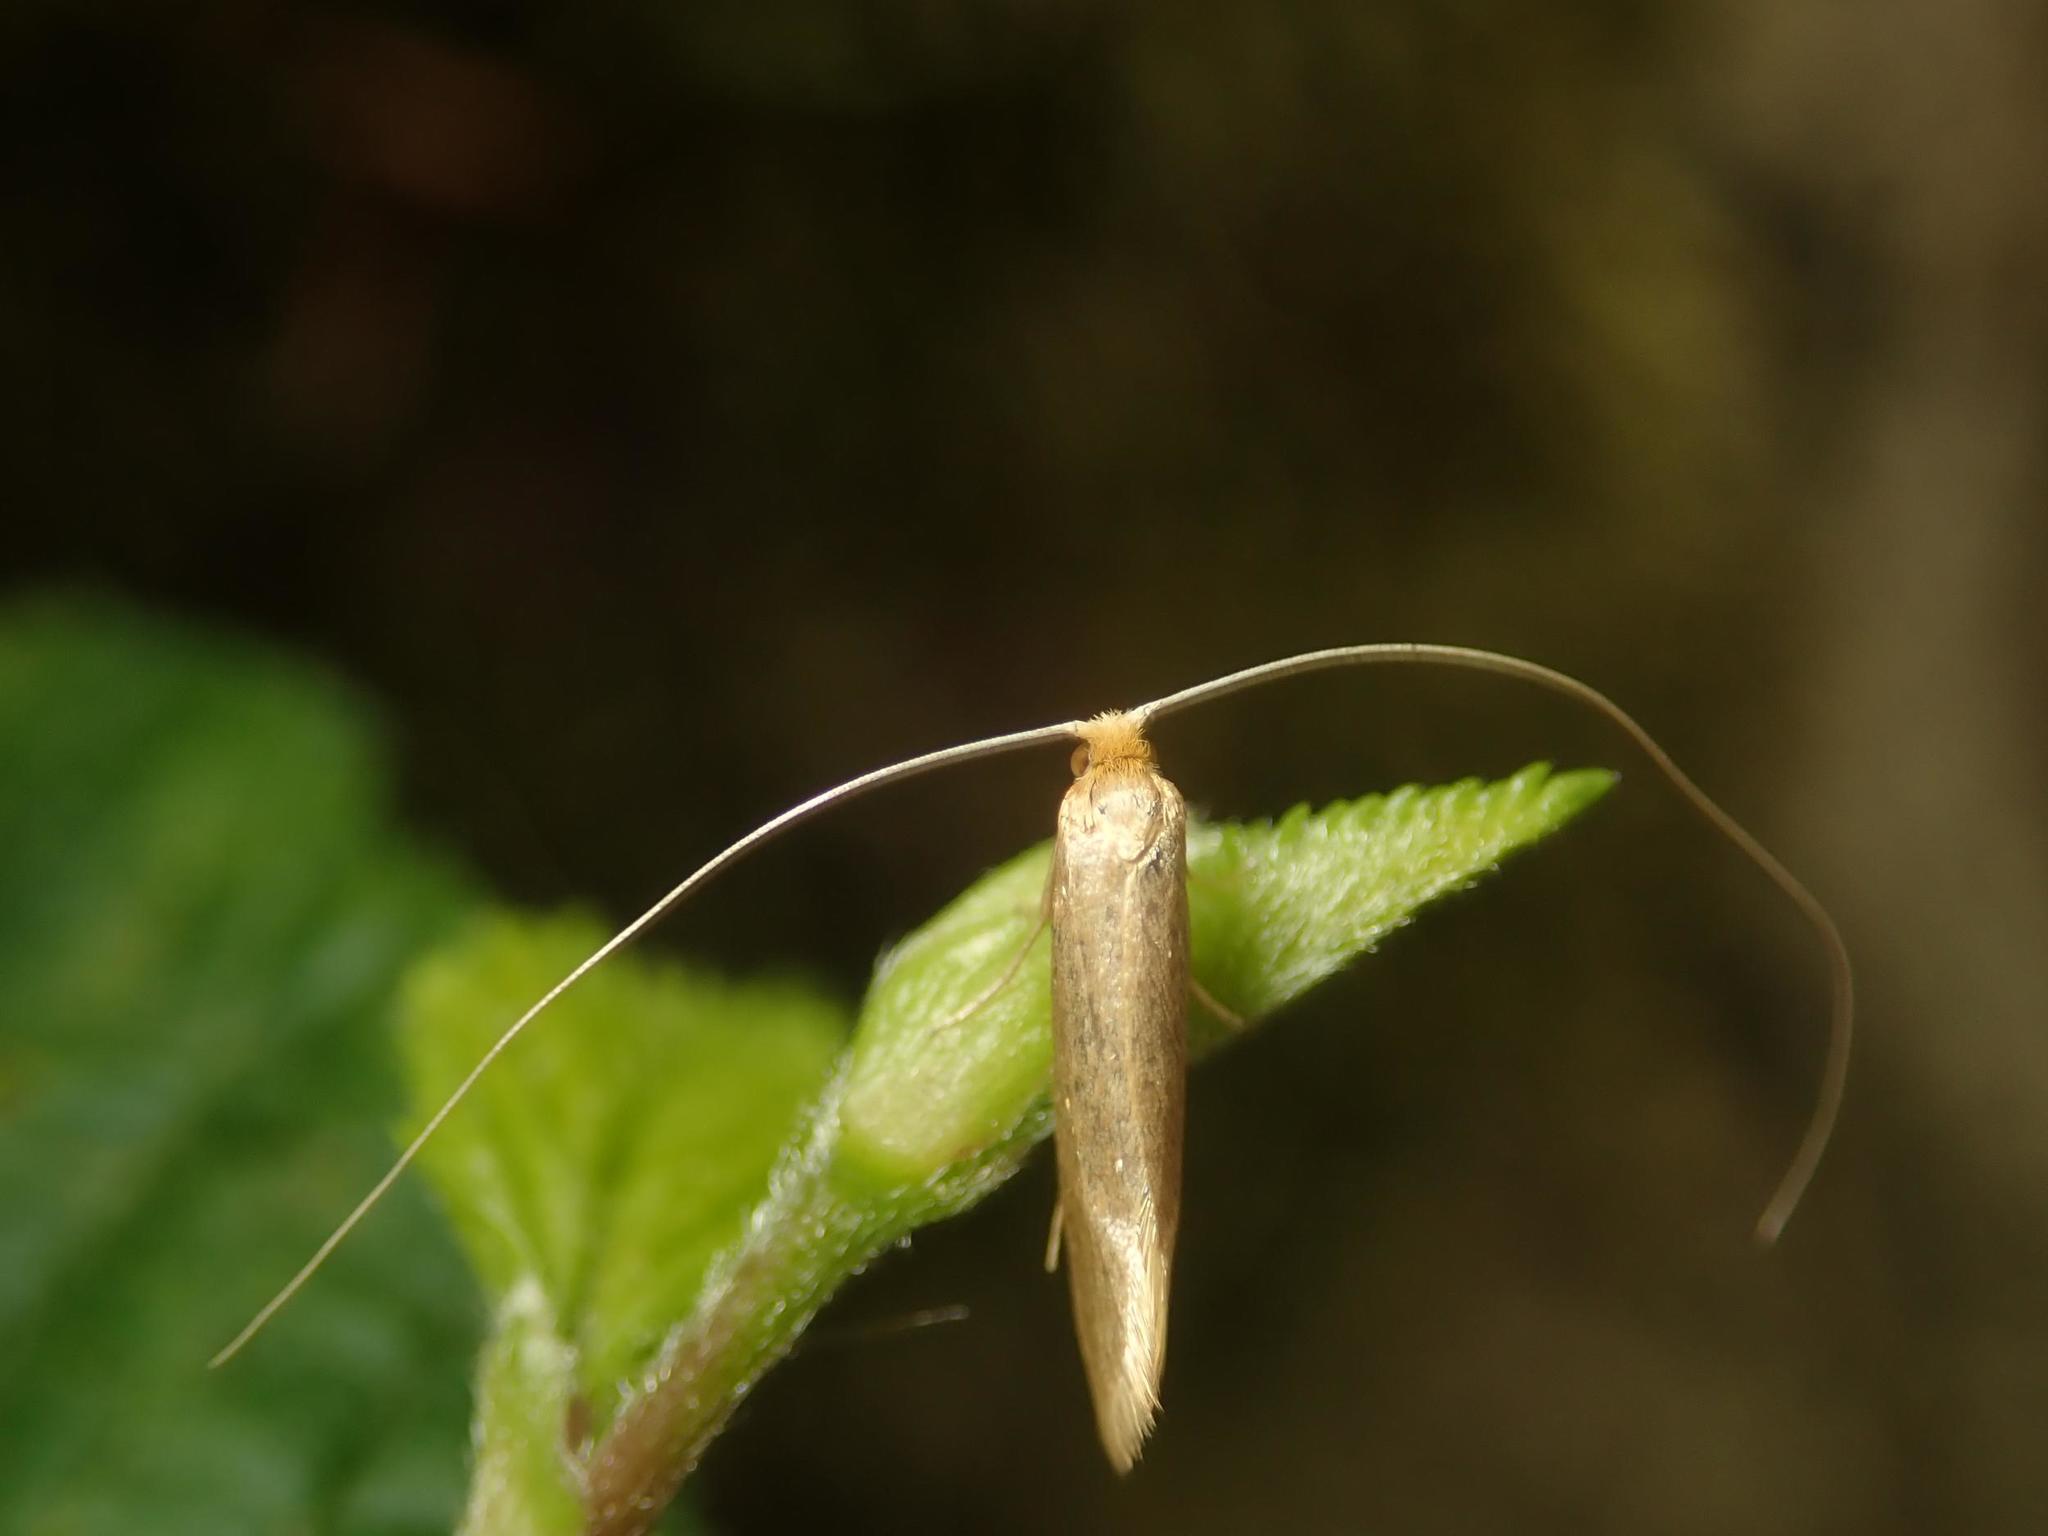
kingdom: Animalia
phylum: Arthropoda
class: Insecta
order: Lepidoptera
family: Adelidae
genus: Nematopogon
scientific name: Nematopogon swammerdamella
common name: Large long-horn
